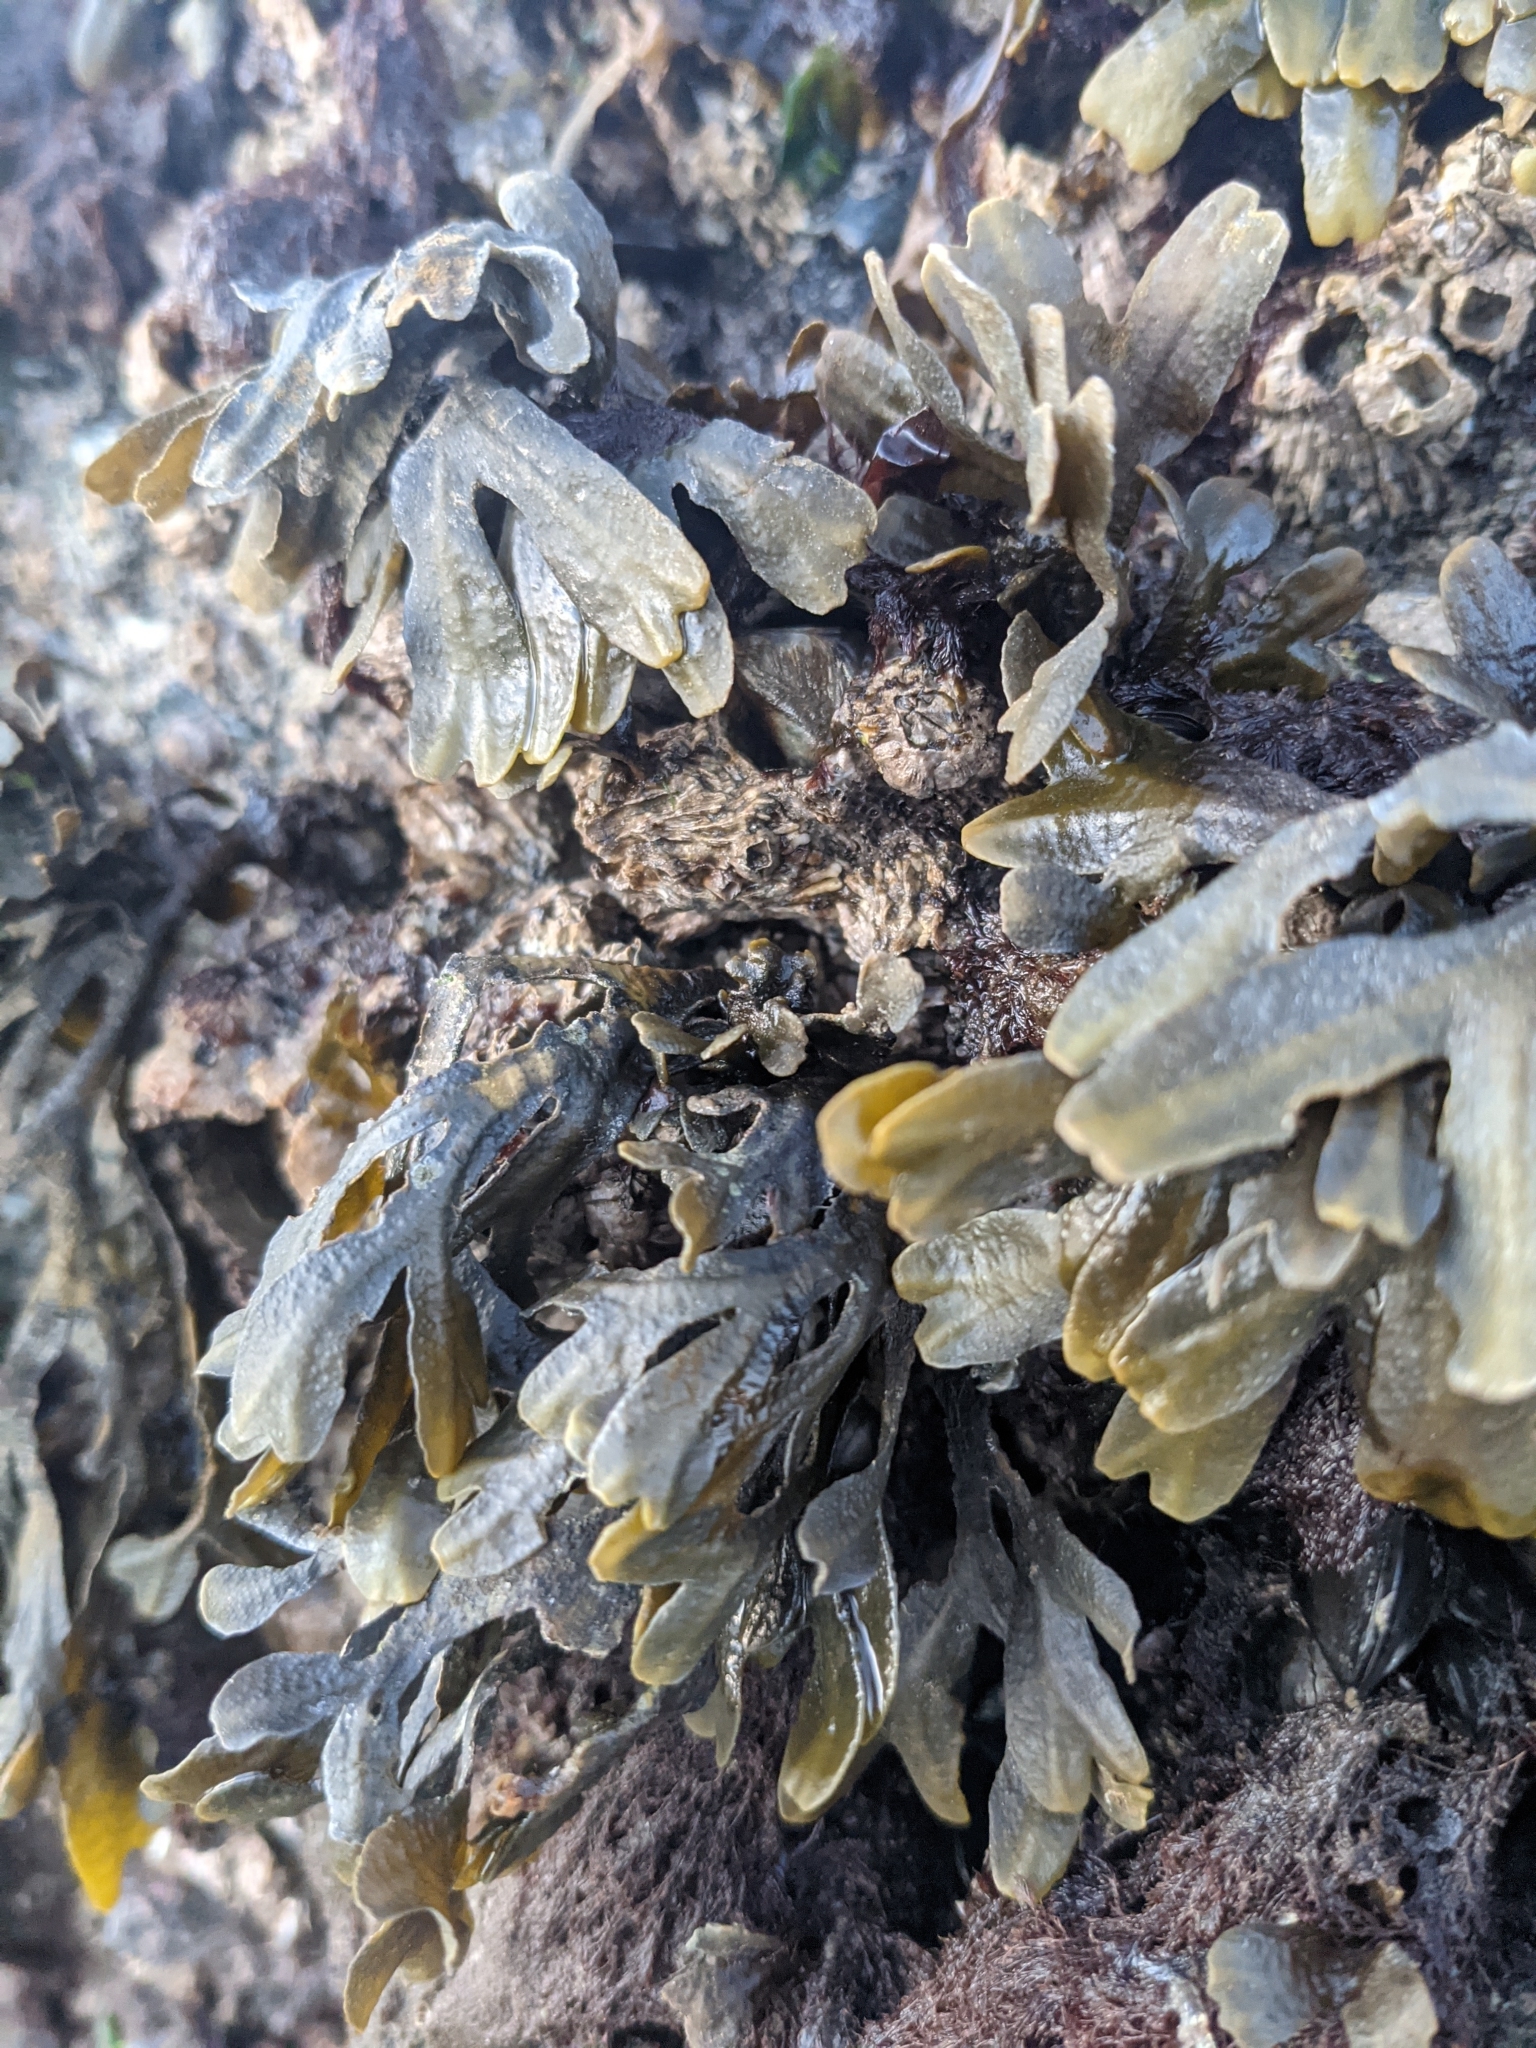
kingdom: Chromista
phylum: Ochrophyta
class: Phaeophyceae
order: Fucales
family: Fucaceae
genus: Fucus
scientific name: Fucus distichus
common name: Rockweed
